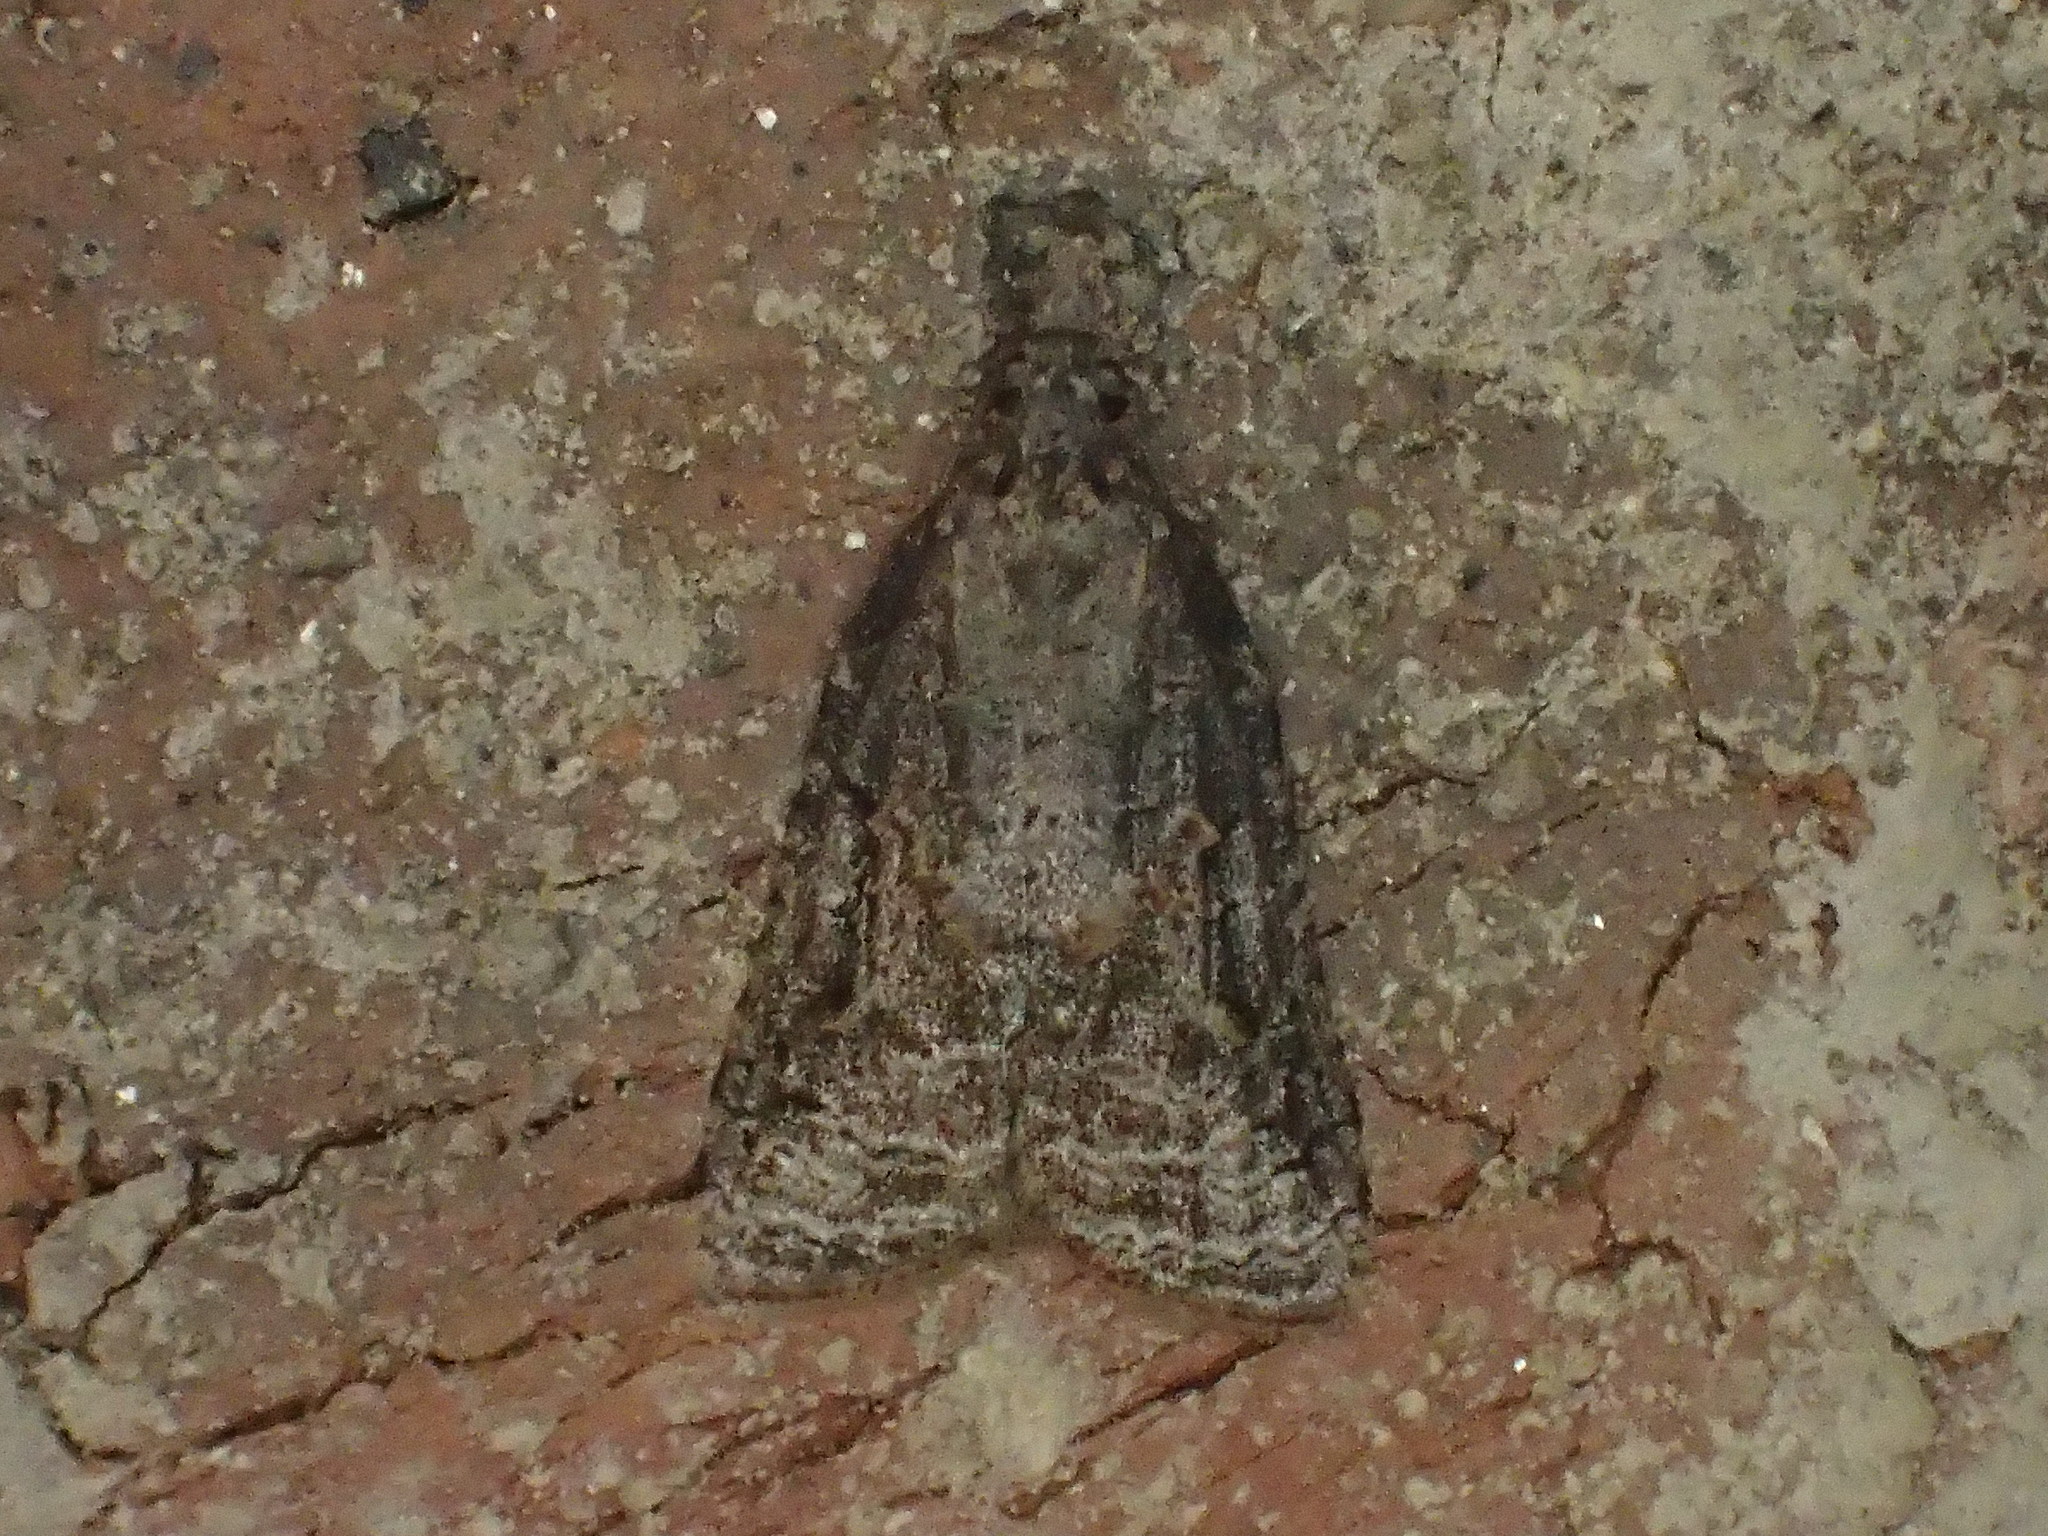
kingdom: Animalia
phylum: Arthropoda
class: Insecta
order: Lepidoptera
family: Tortricidae
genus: Platynota
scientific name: Platynota idaeusalis
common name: Tufted apple bud moth
